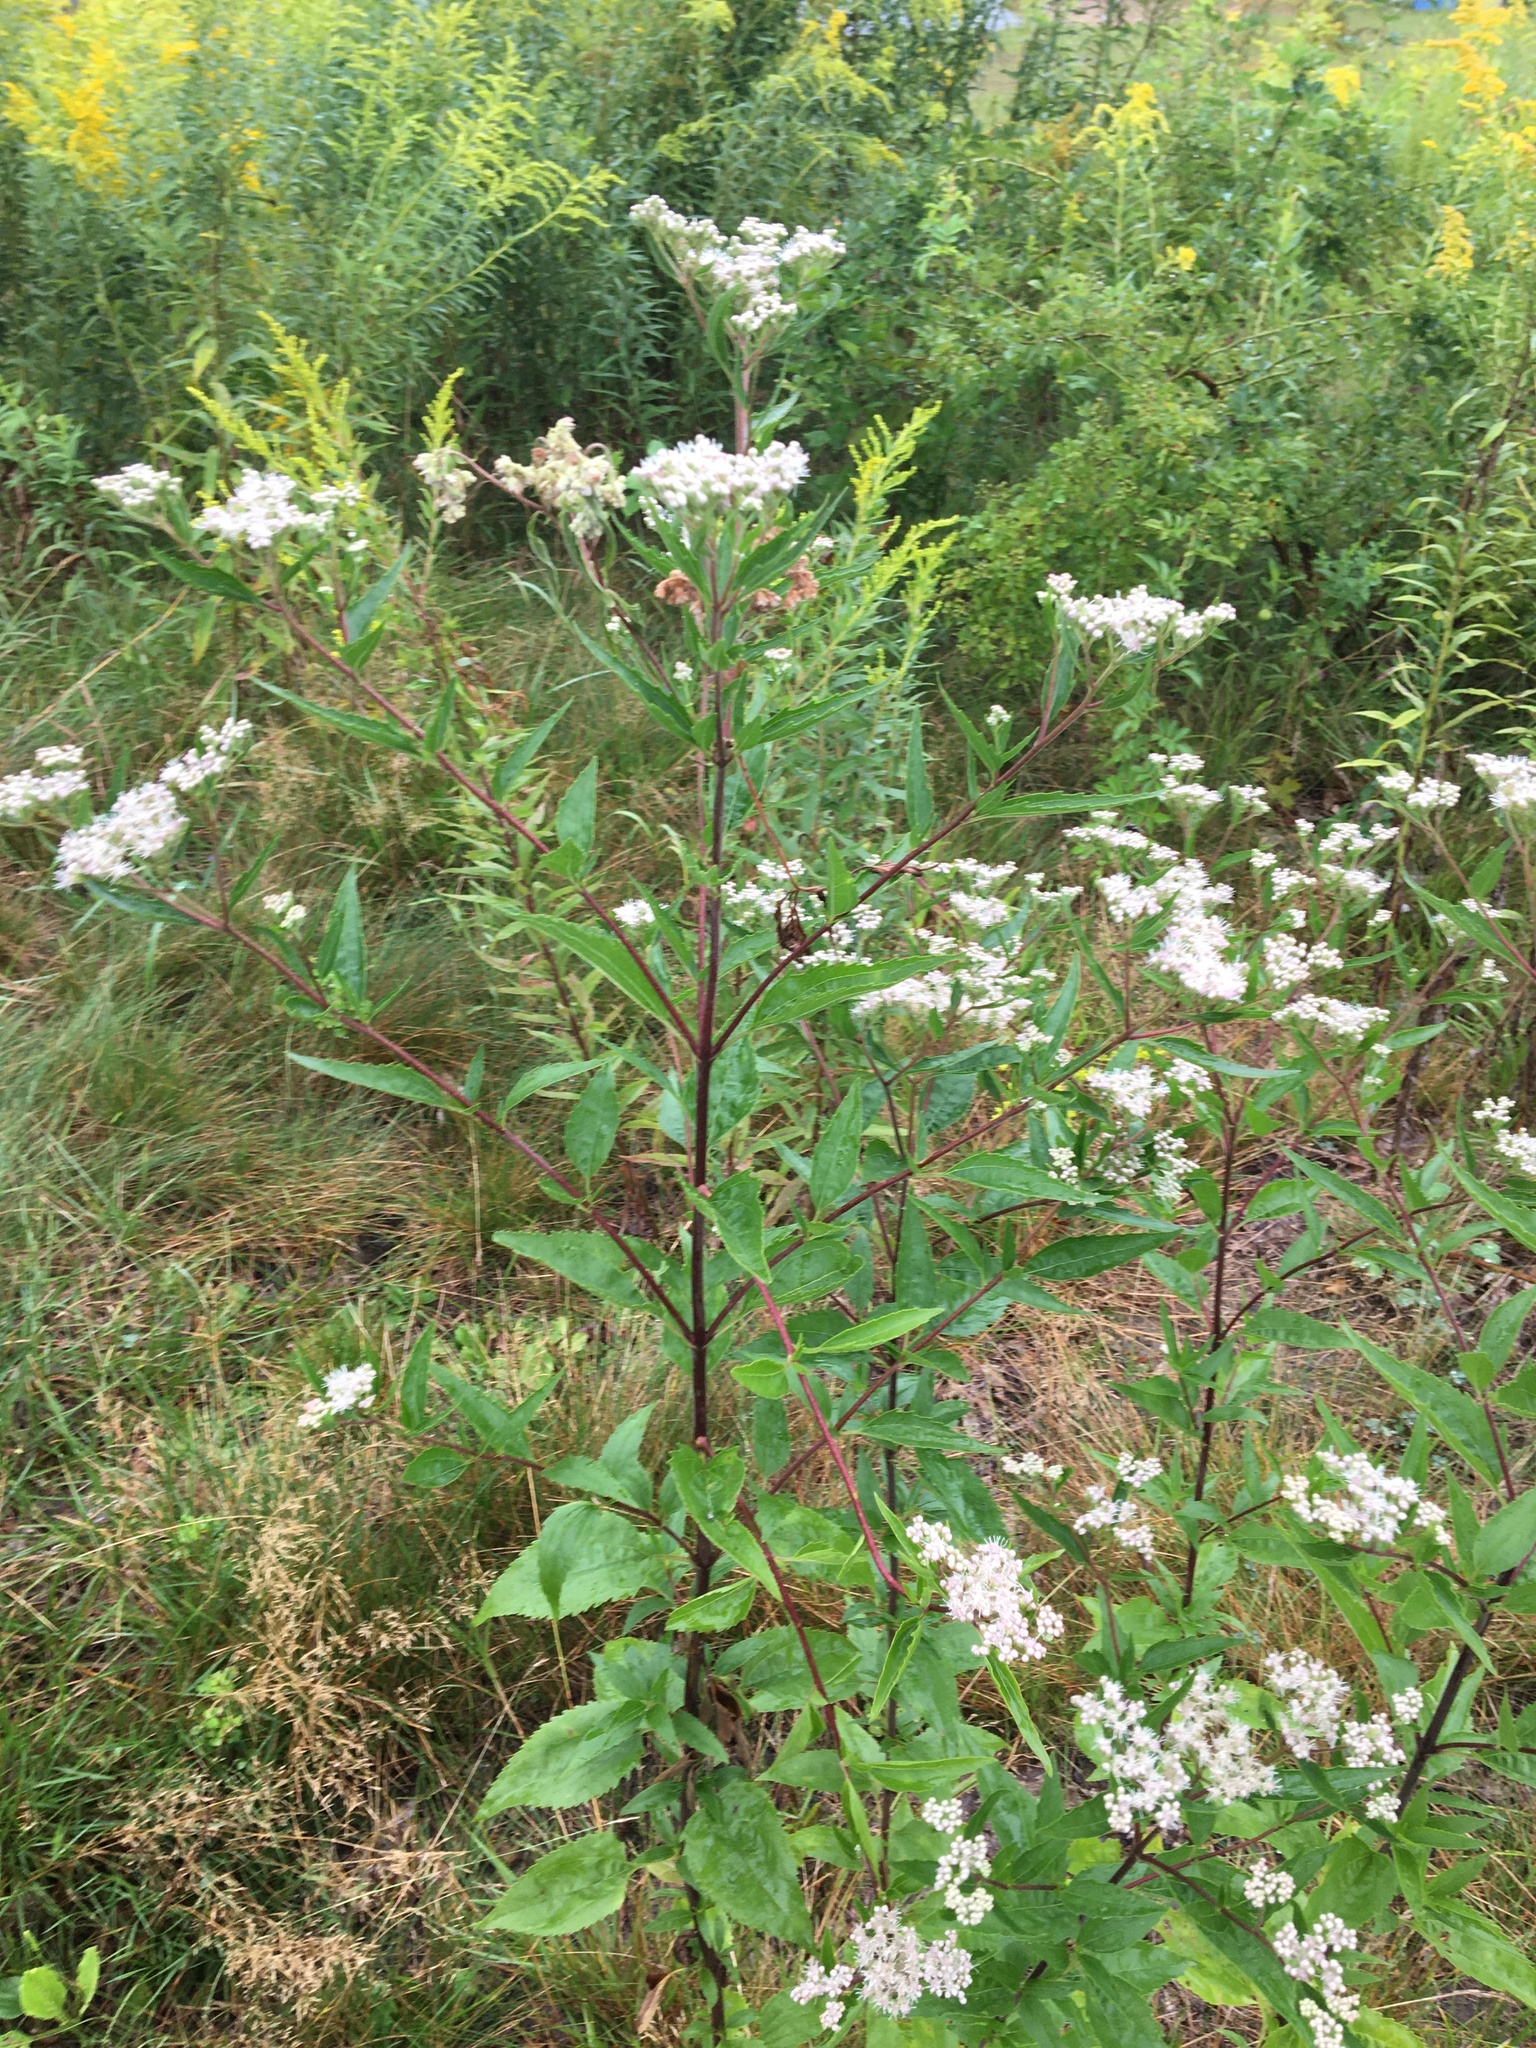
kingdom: Plantae
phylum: Tracheophyta
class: Magnoliopsida
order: Asterales
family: Asteraceae
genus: Eupatorium
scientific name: Eupatorium serotinum
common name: Late boneset
